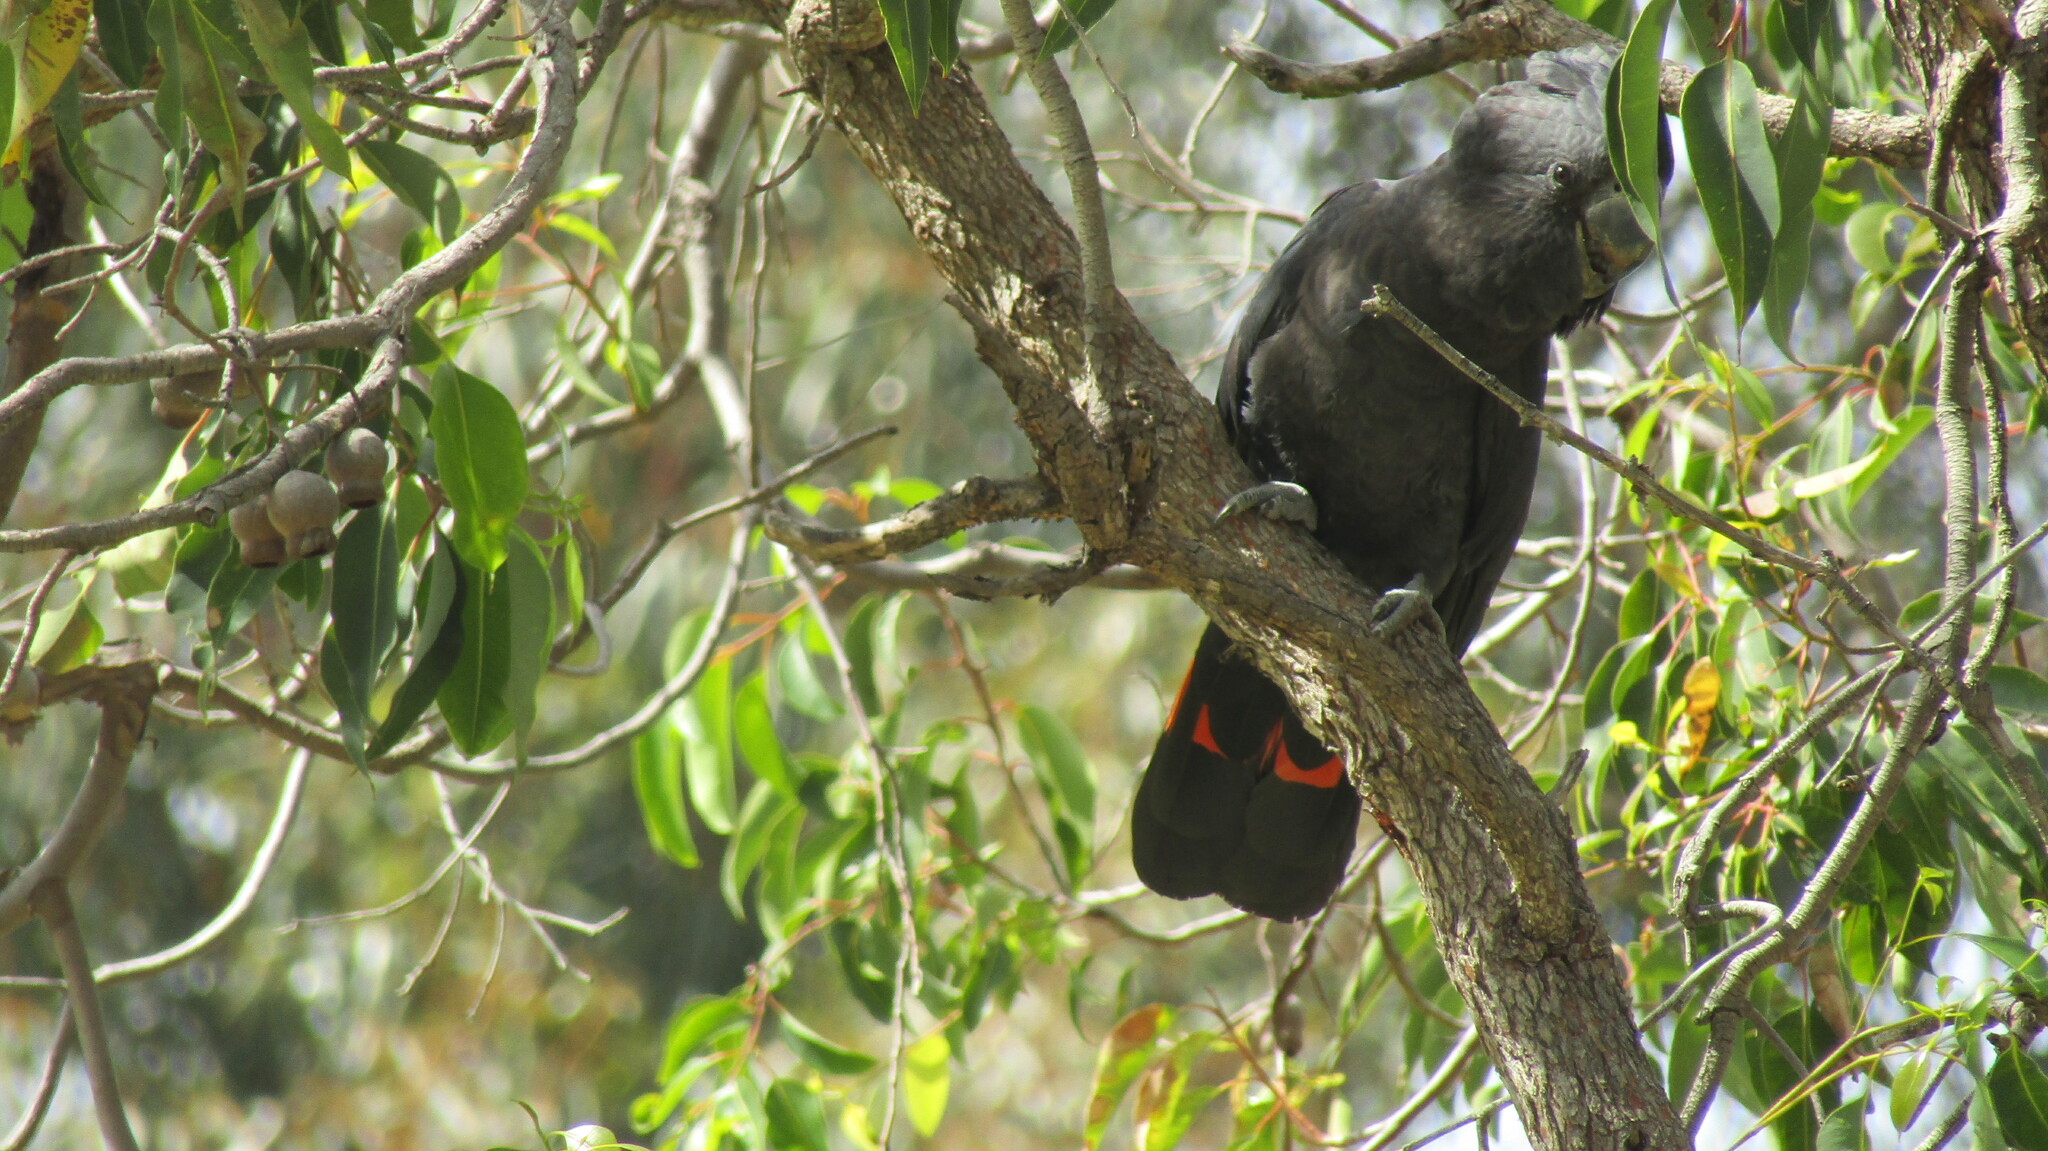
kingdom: Animalia
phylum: Chordata
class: Aves
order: Psittaciformes
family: Psittacidae
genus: Calyptorhynchus
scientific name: Calyptorhynchus banksii
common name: Red-tailed black cockatoo
